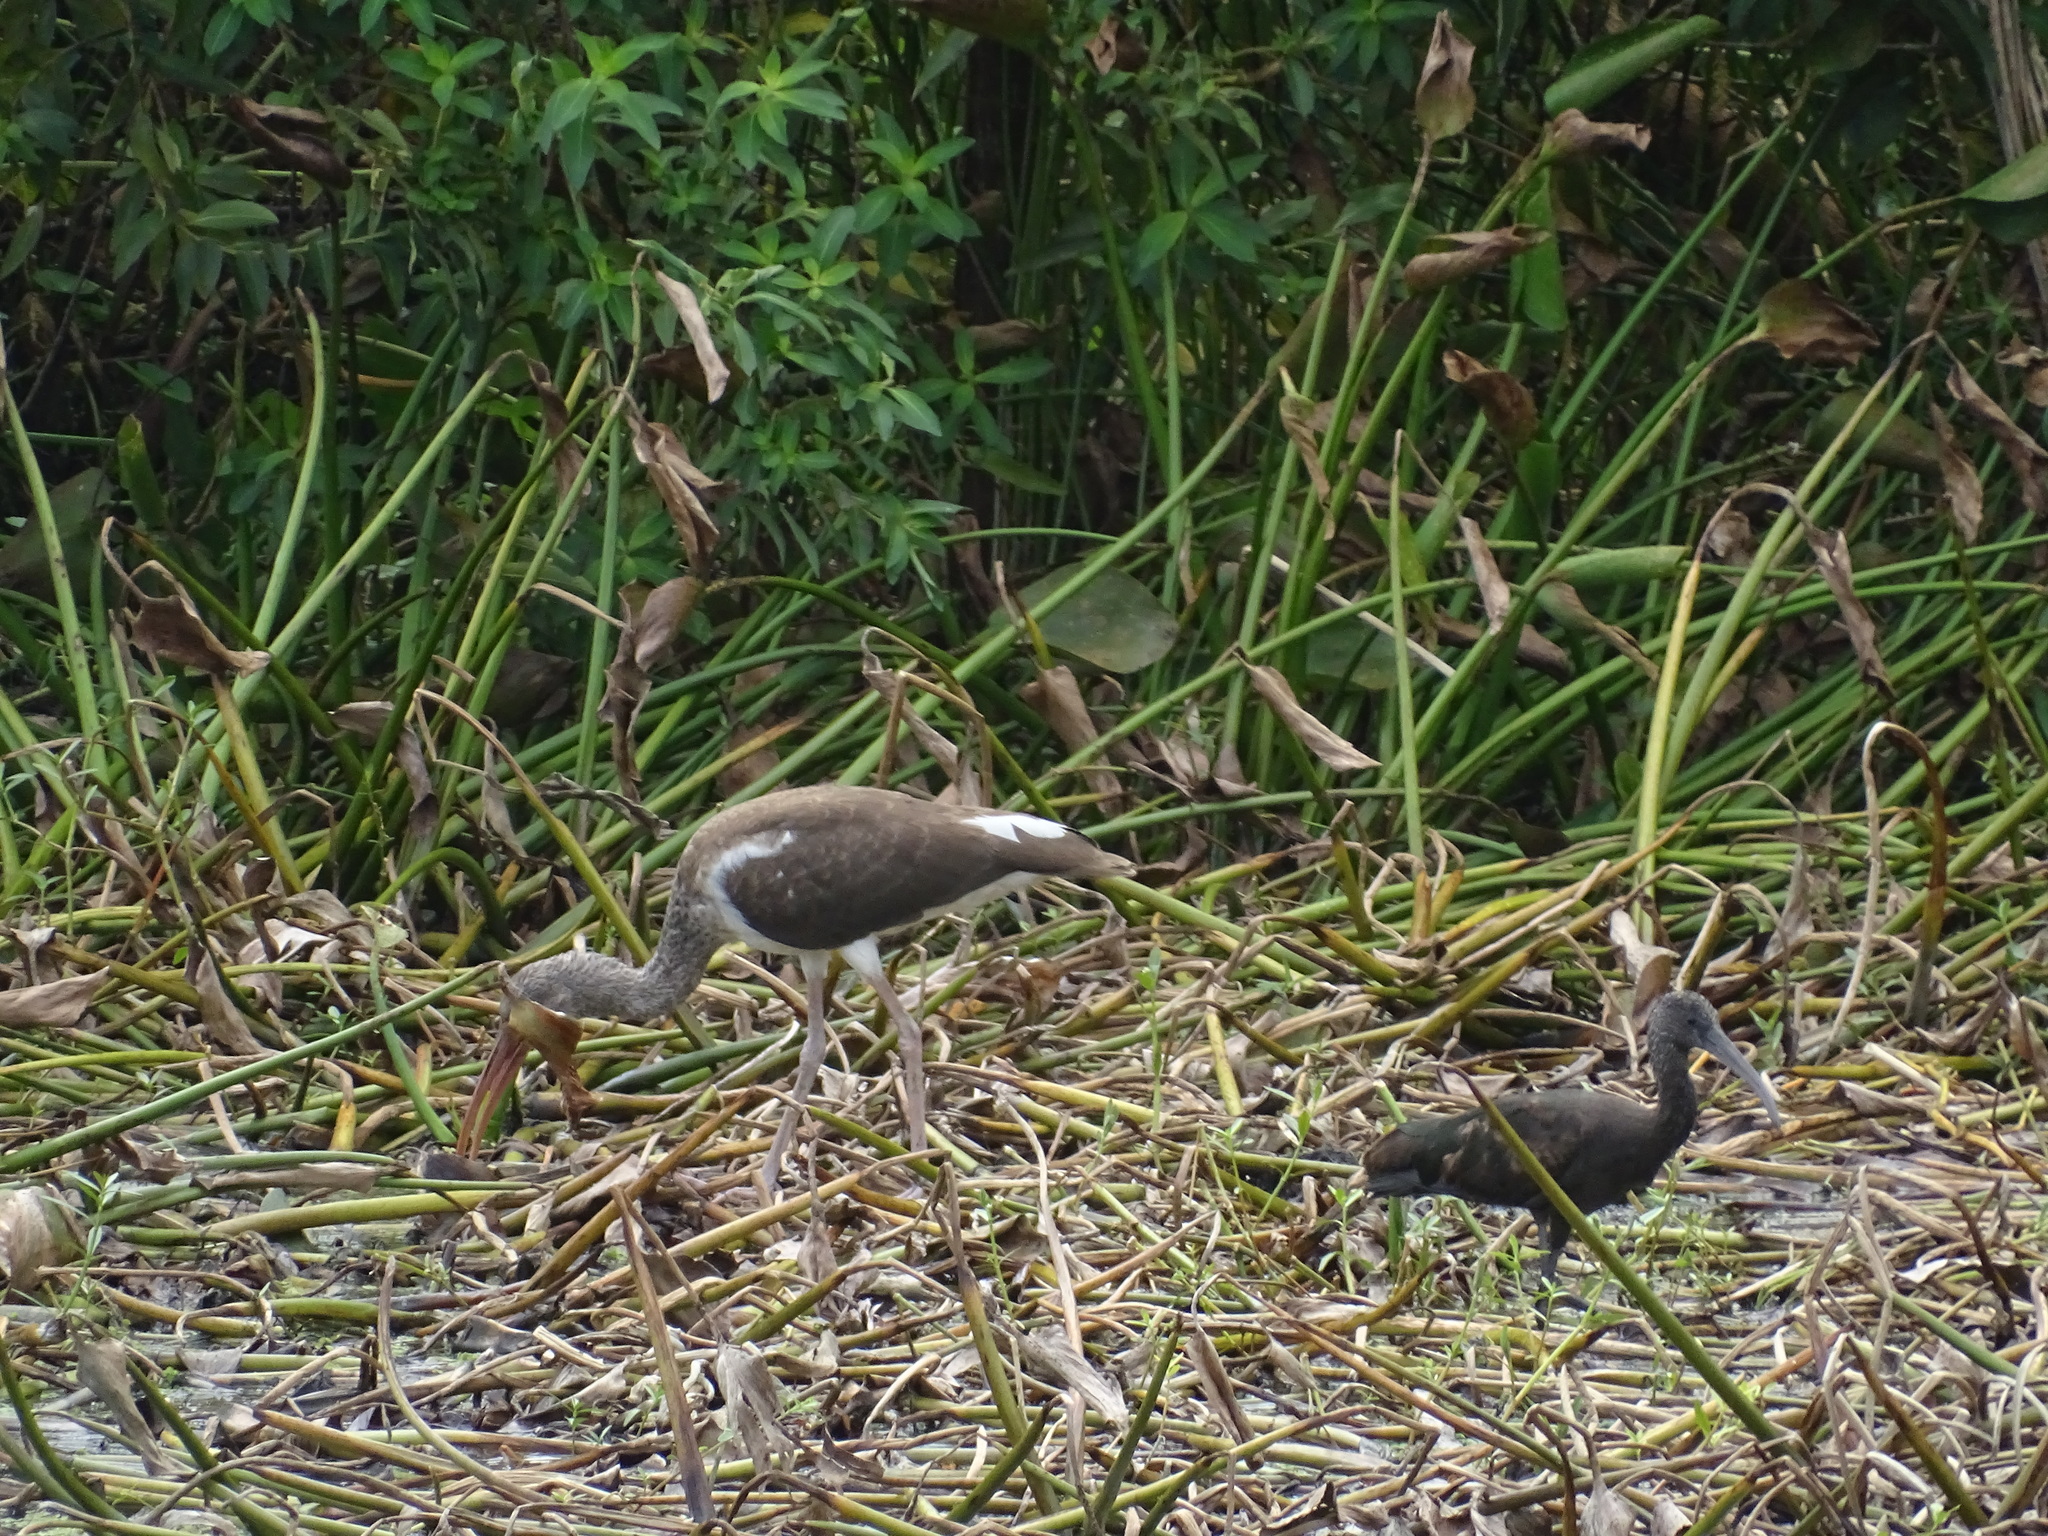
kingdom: Animalia
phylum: Chordata
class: Aves
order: Pelecaniformes
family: Threskiornithidae
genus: Eudocimus
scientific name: Eudocimus albus
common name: White ibis
